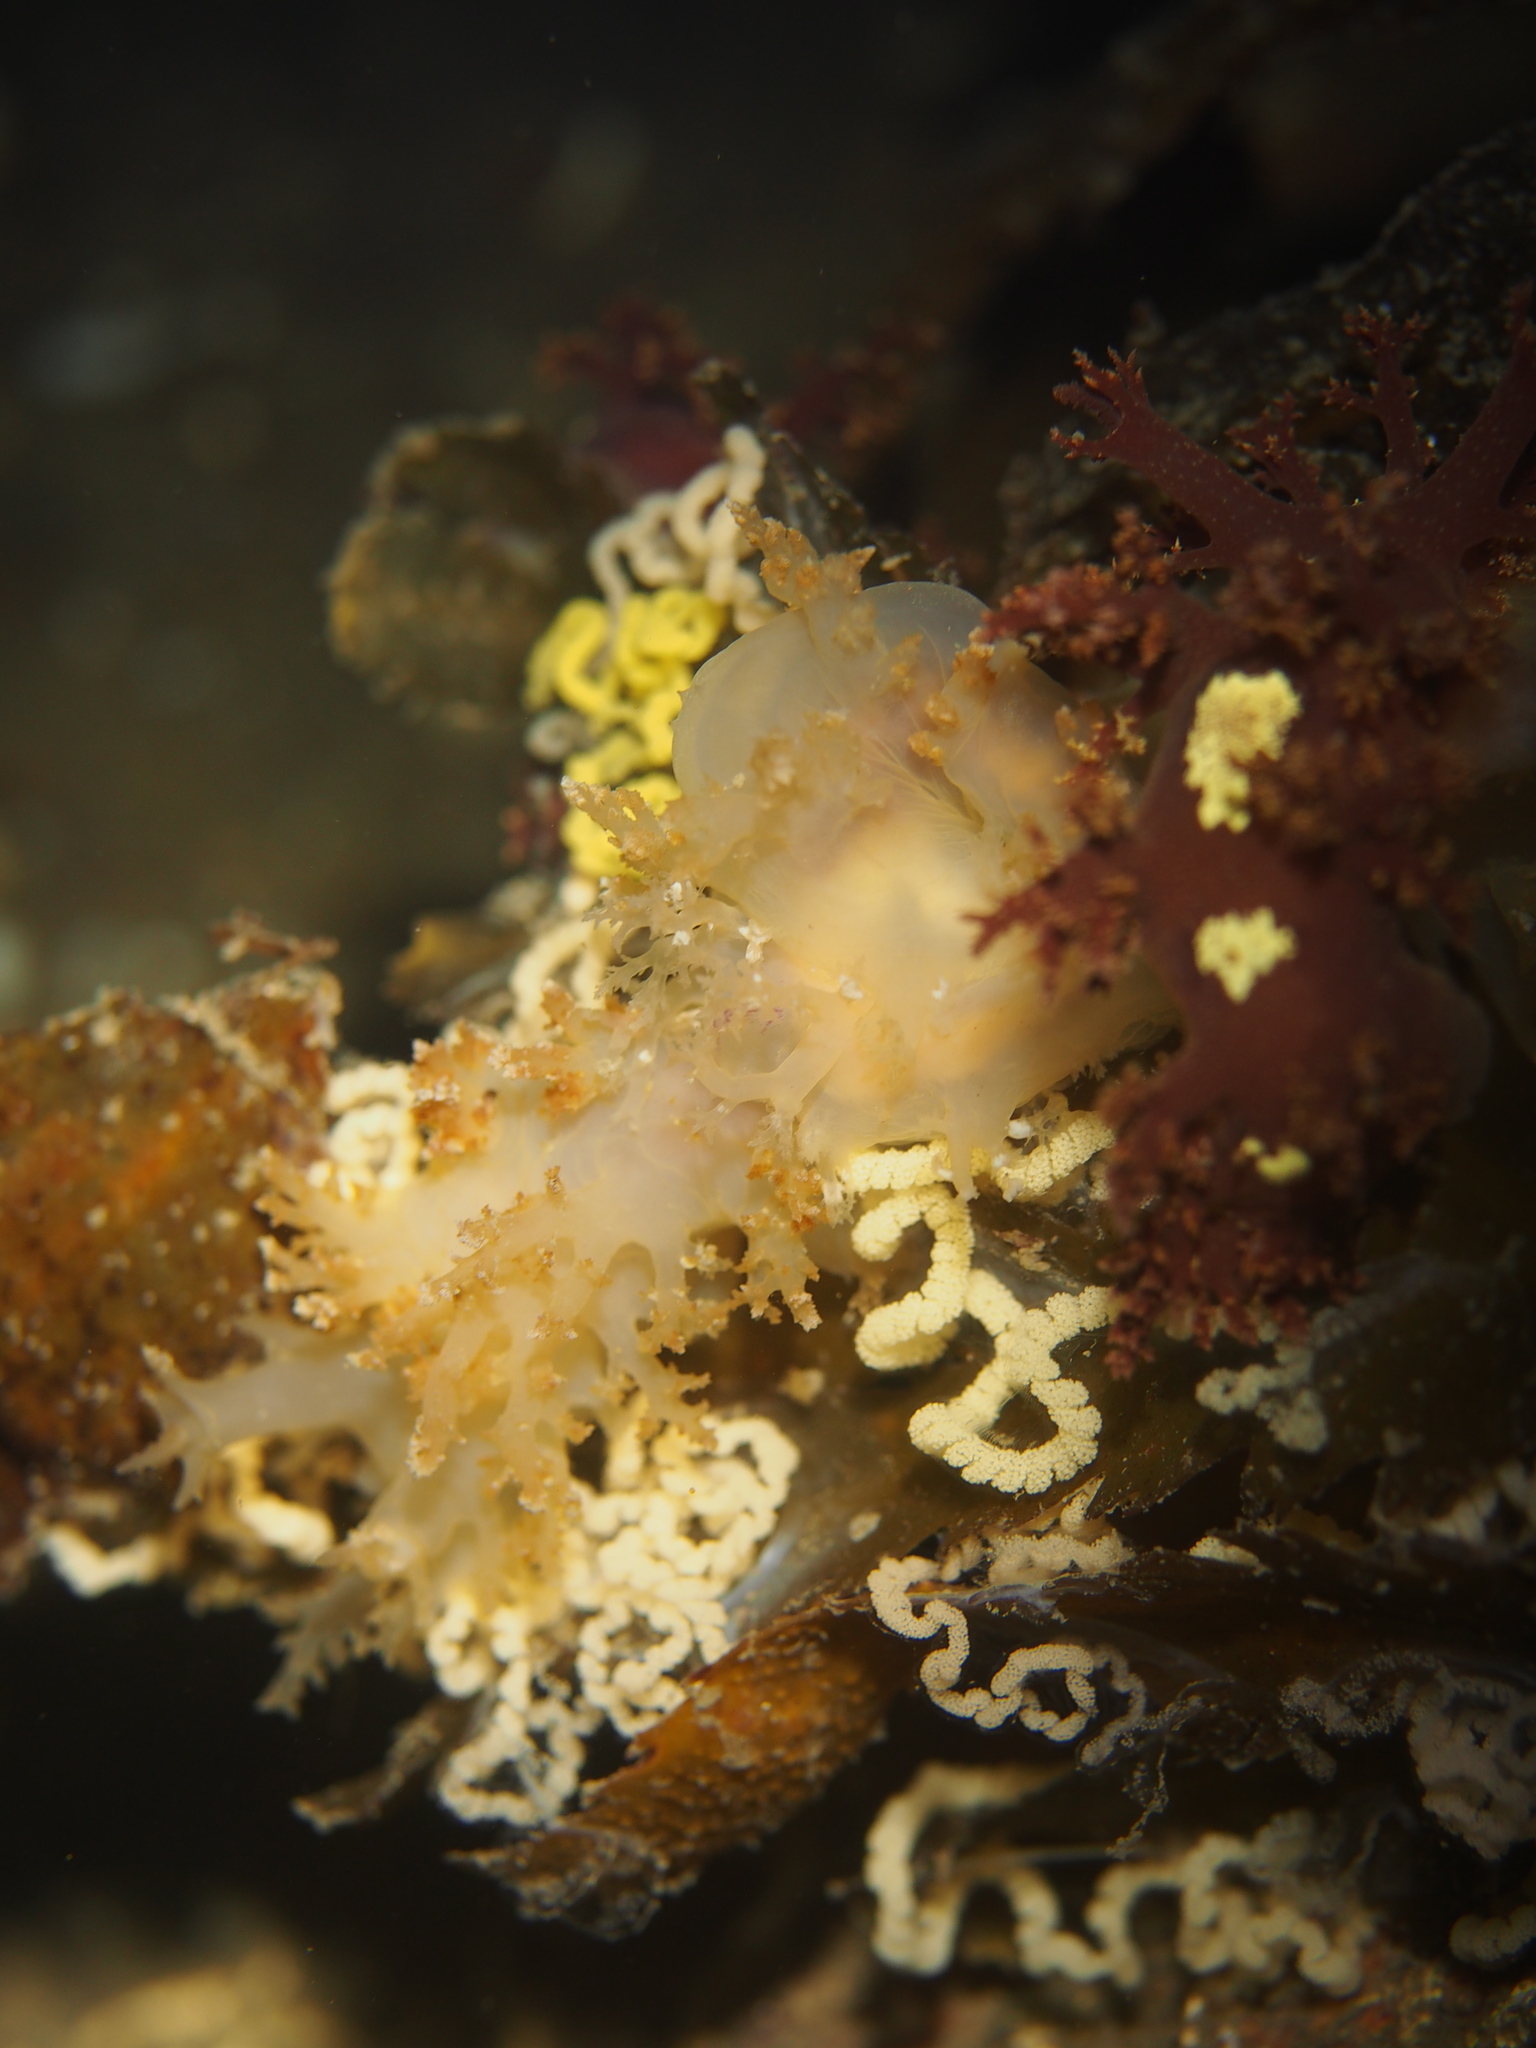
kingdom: Animalia
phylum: Mollusca
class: Gastropoda
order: Nudibranchia
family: Dendronotidae
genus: Dendronotus
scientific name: Dendronotus lacteus
